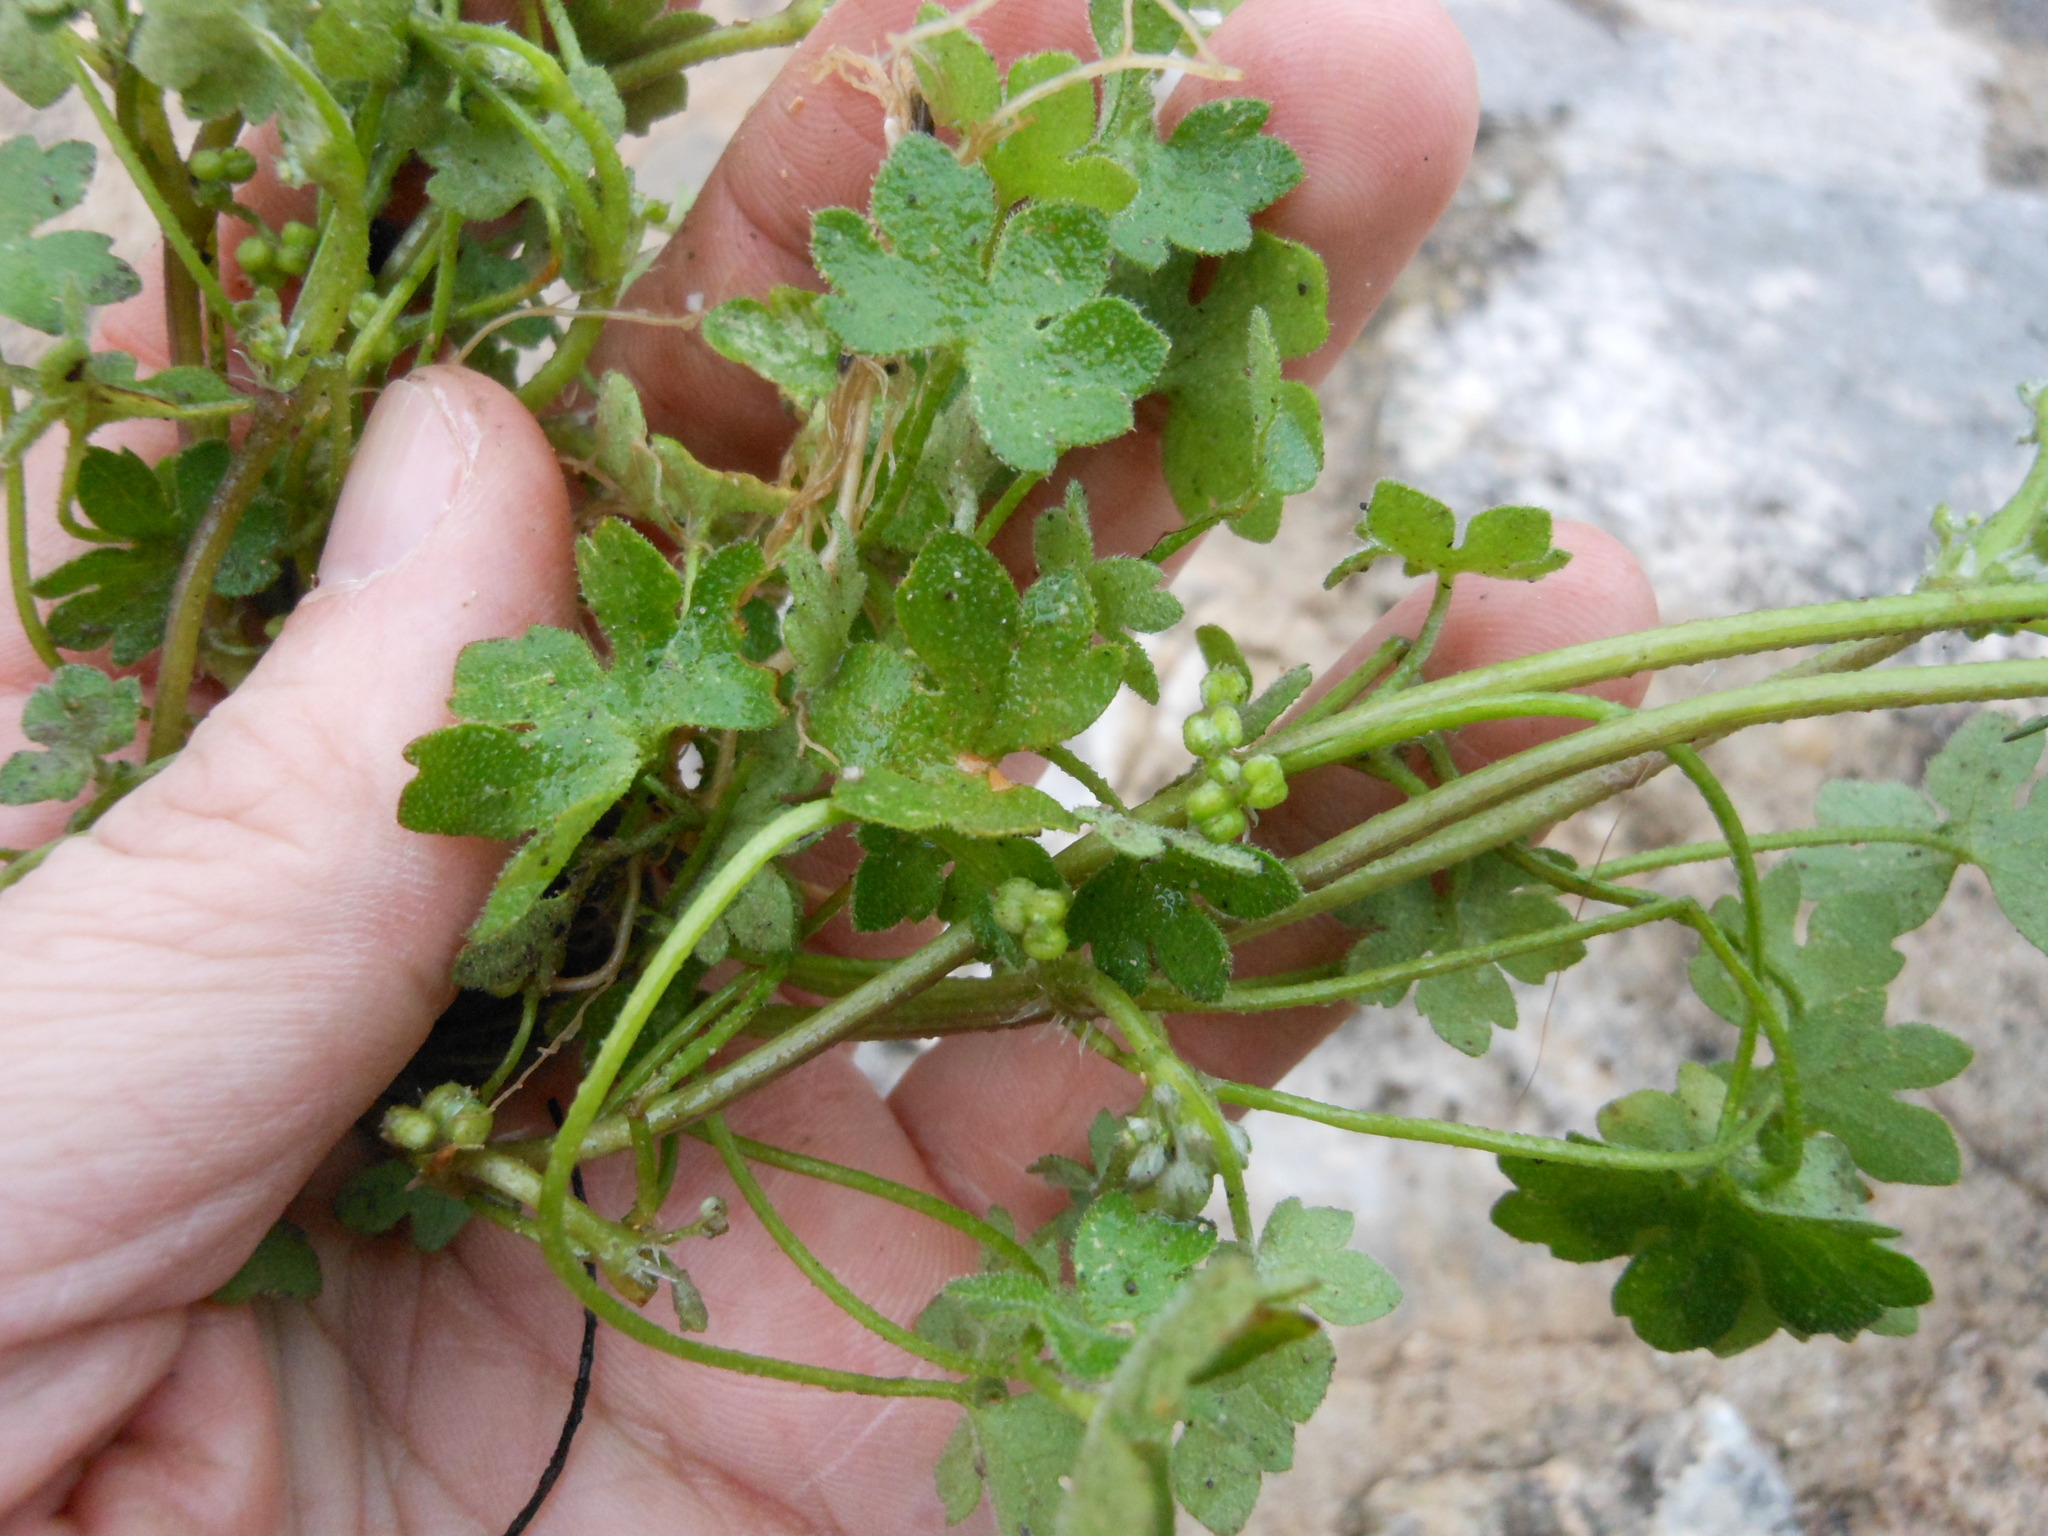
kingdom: Plantae
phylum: Tracheophyta
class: Magnoliopsida
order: Apiales
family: Apiaceae
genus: Bowlesia
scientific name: Bowlesia incana
